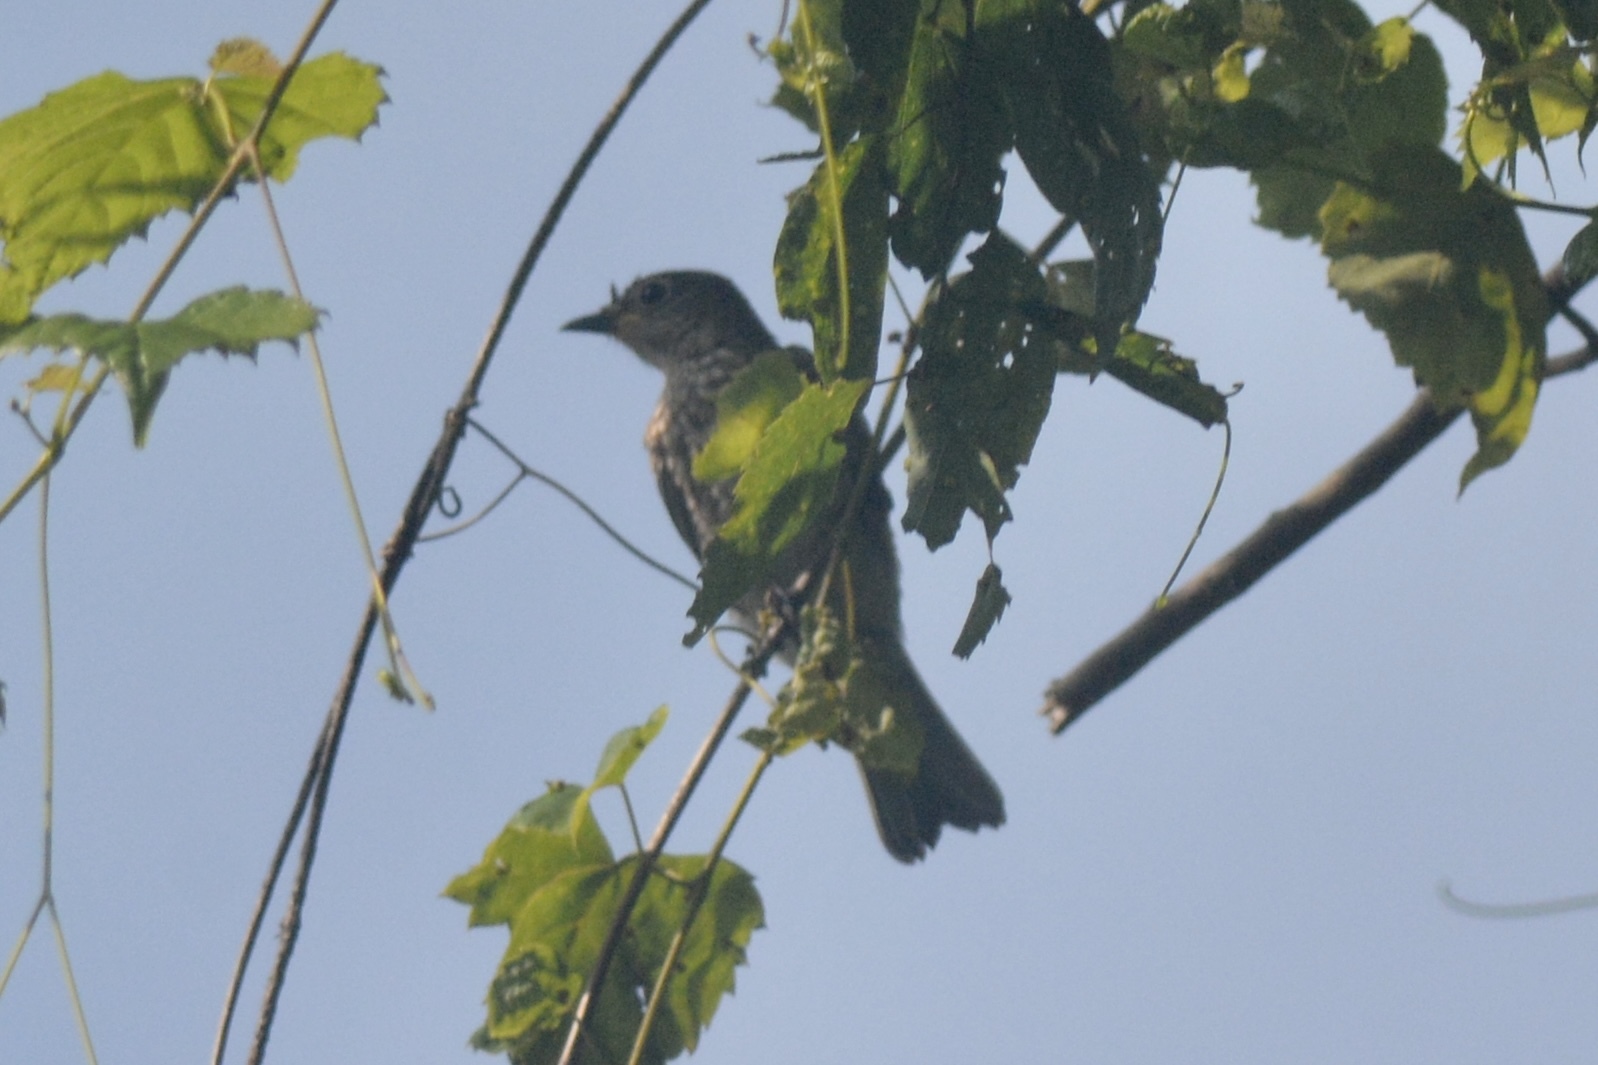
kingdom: Animalia
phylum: Chordata
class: Aves
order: Passeriformes
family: Turdidae
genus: Sialia
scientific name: Sialia sialis
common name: Eastern bluebird
